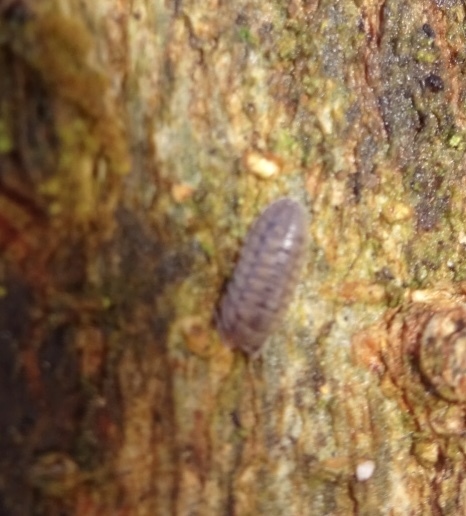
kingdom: Animalia
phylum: Arthropoda
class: Malacostraca
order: Isopoda
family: Armadillidiidae
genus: Armadillidium
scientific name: Armadillidium nasatum
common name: Isopod
